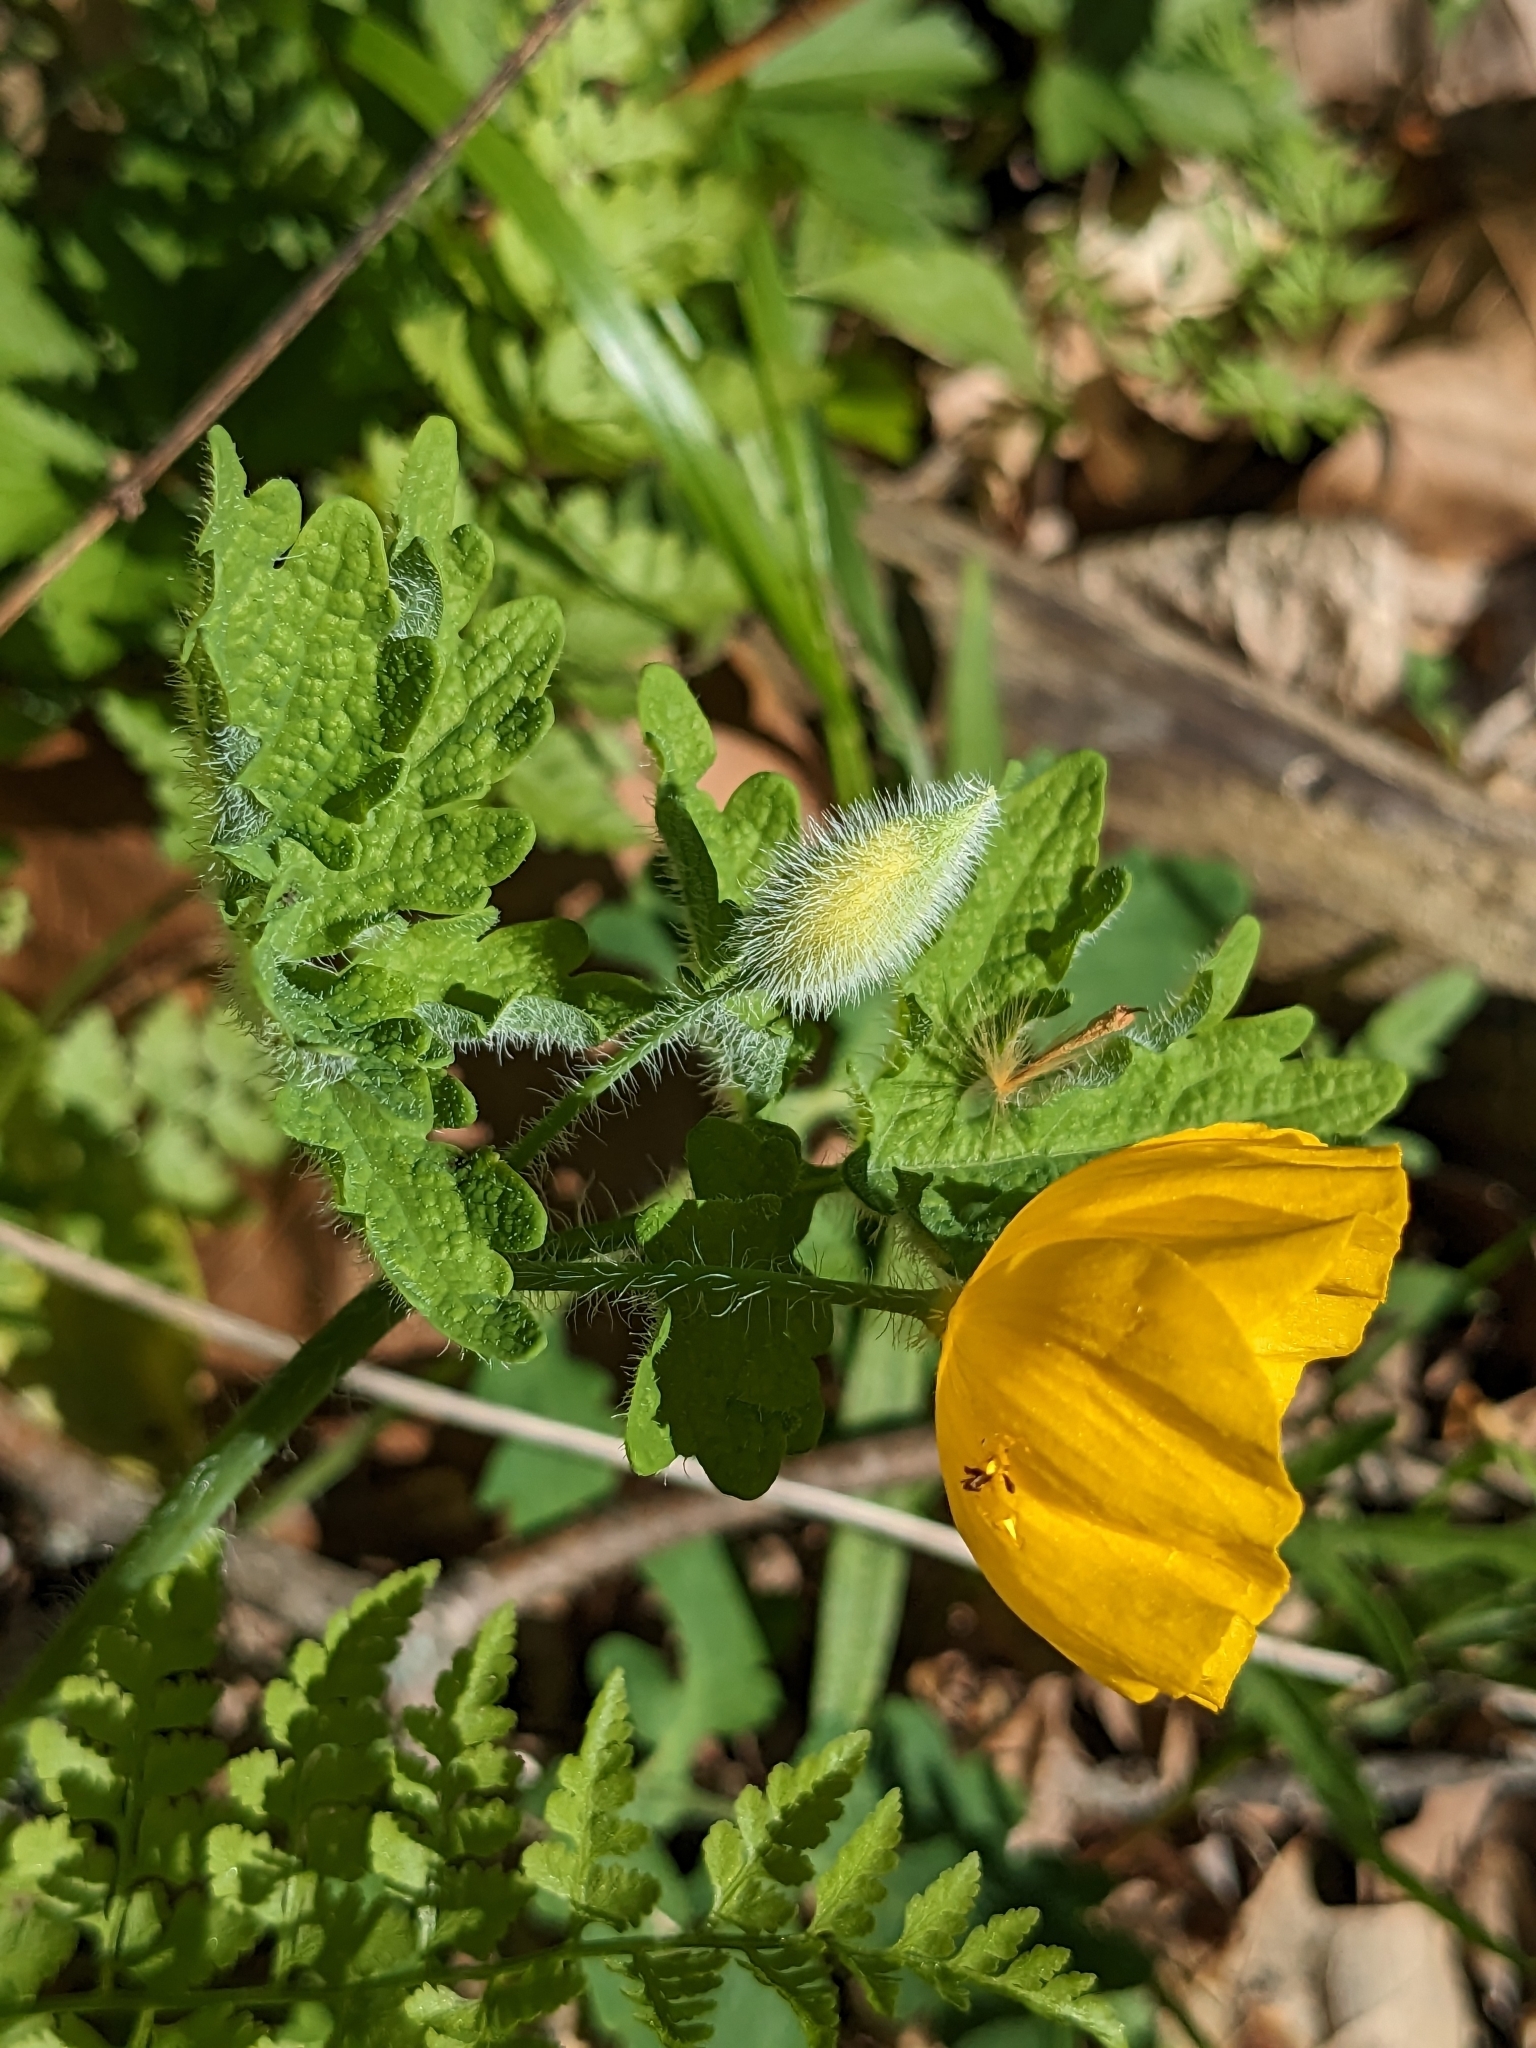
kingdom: Plantae
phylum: Tracheophyta
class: Magnoliopsida
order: Ranunculales
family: Papaveraceae
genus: Stylophorum
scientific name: Stylophorum diphyllum
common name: Celandine poppy
